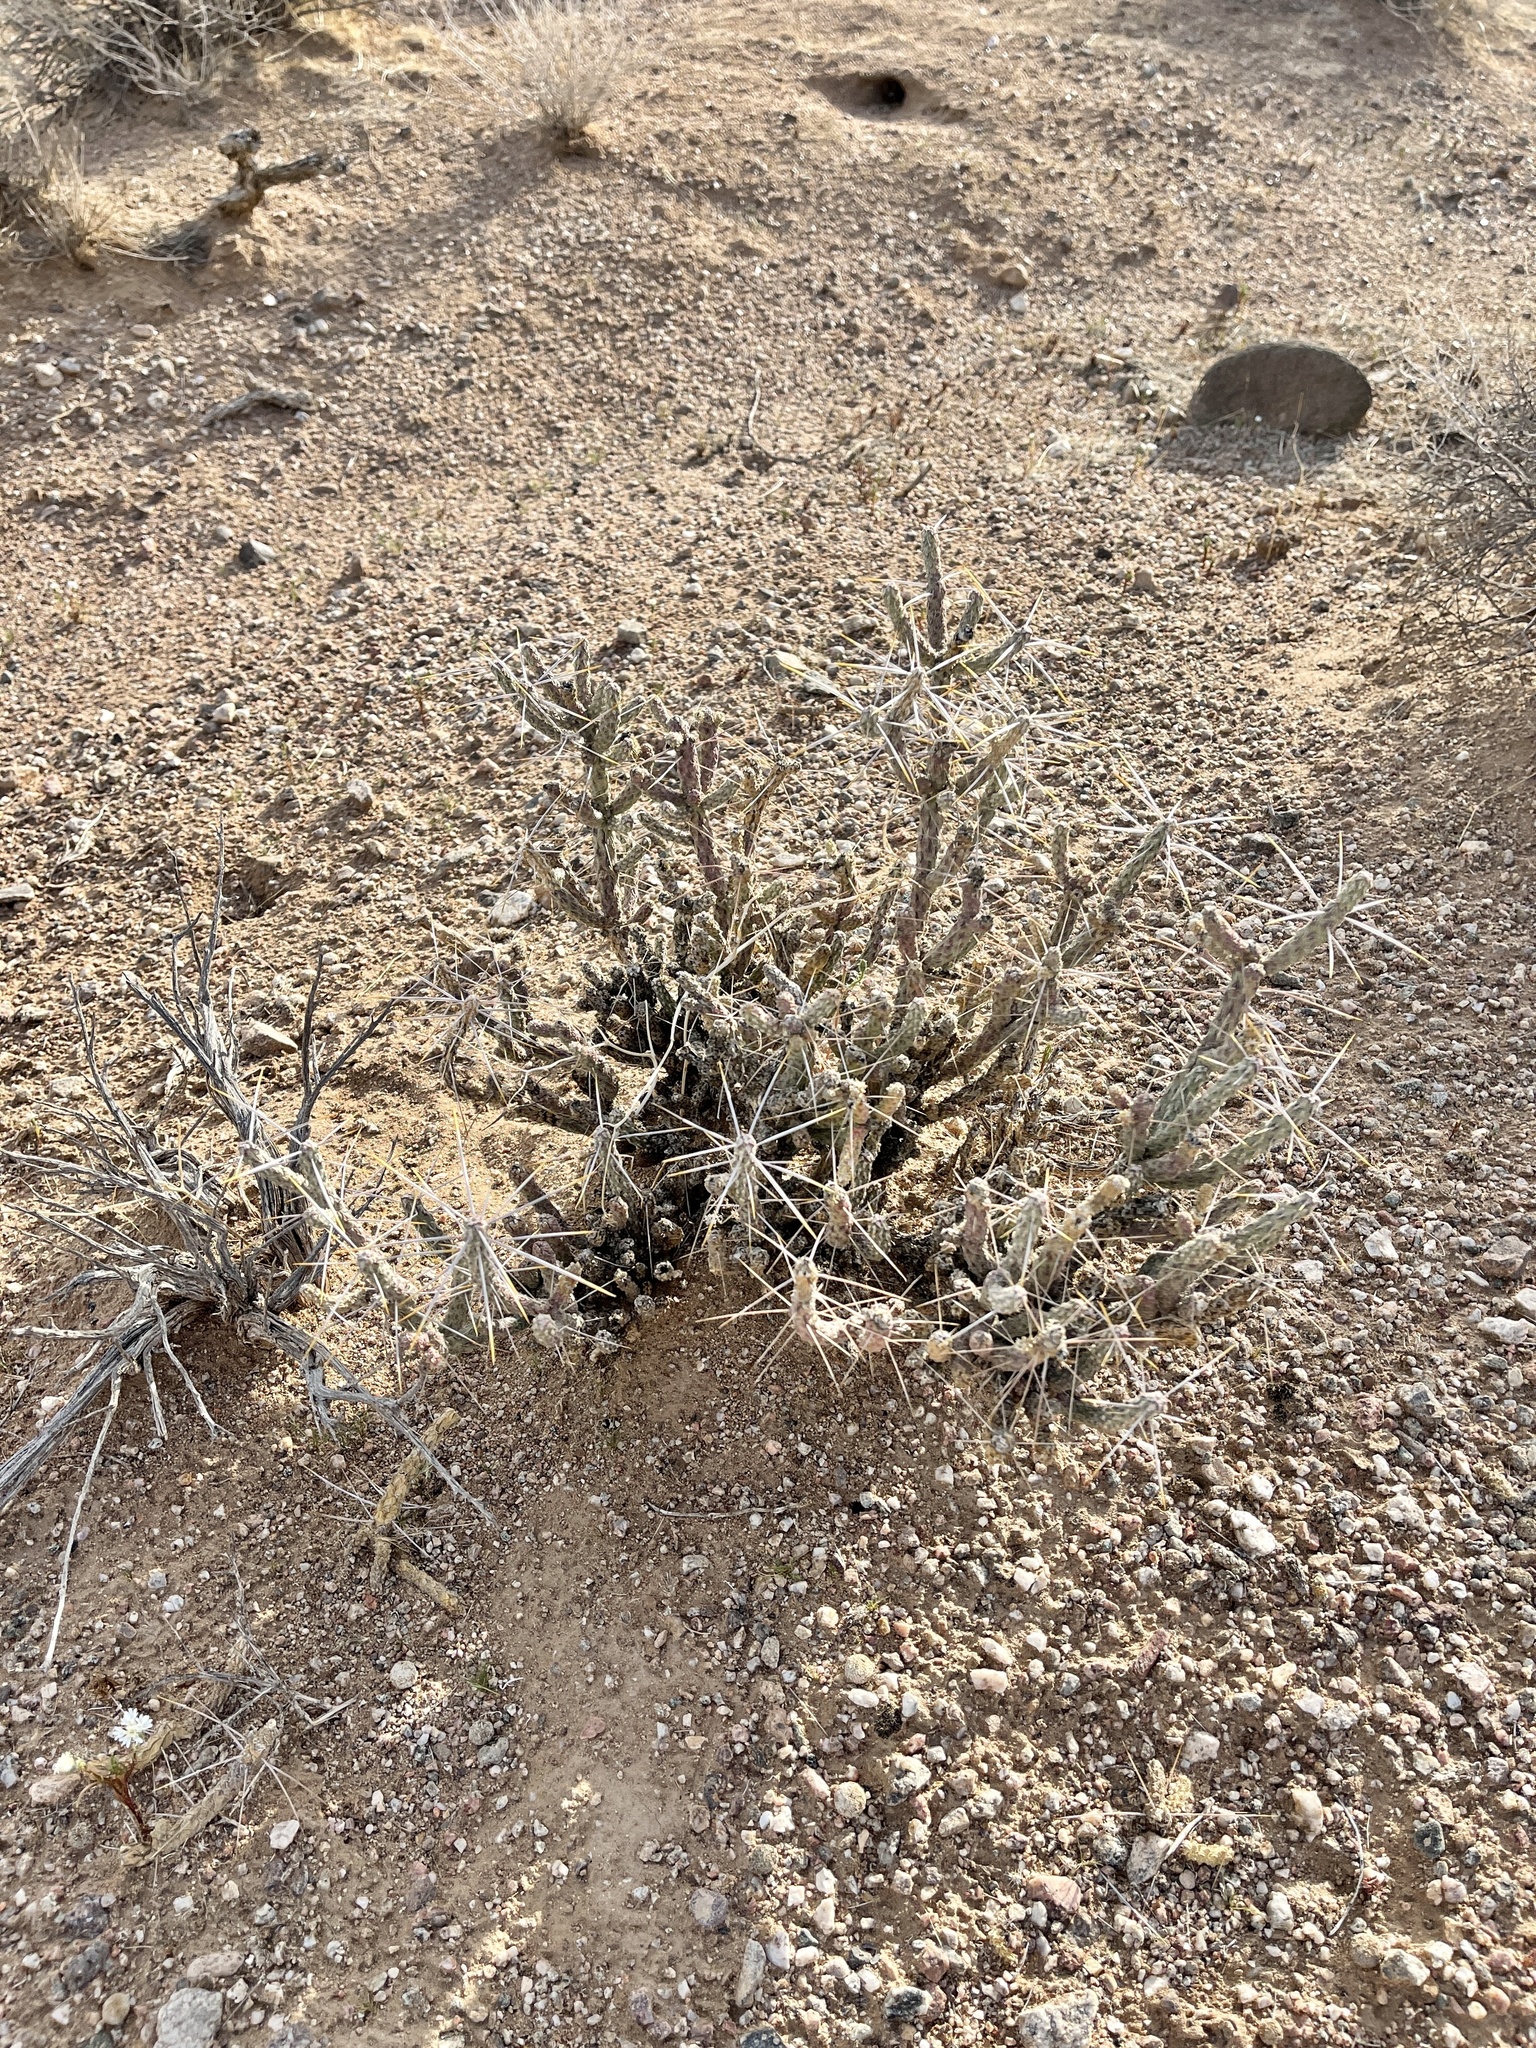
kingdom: Plantae
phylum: Tracheophyta
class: Magnoliopsida
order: Caryophyllales
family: Cactaceae
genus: Cylindropuntia
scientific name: Cylindropuntia ramosissima
